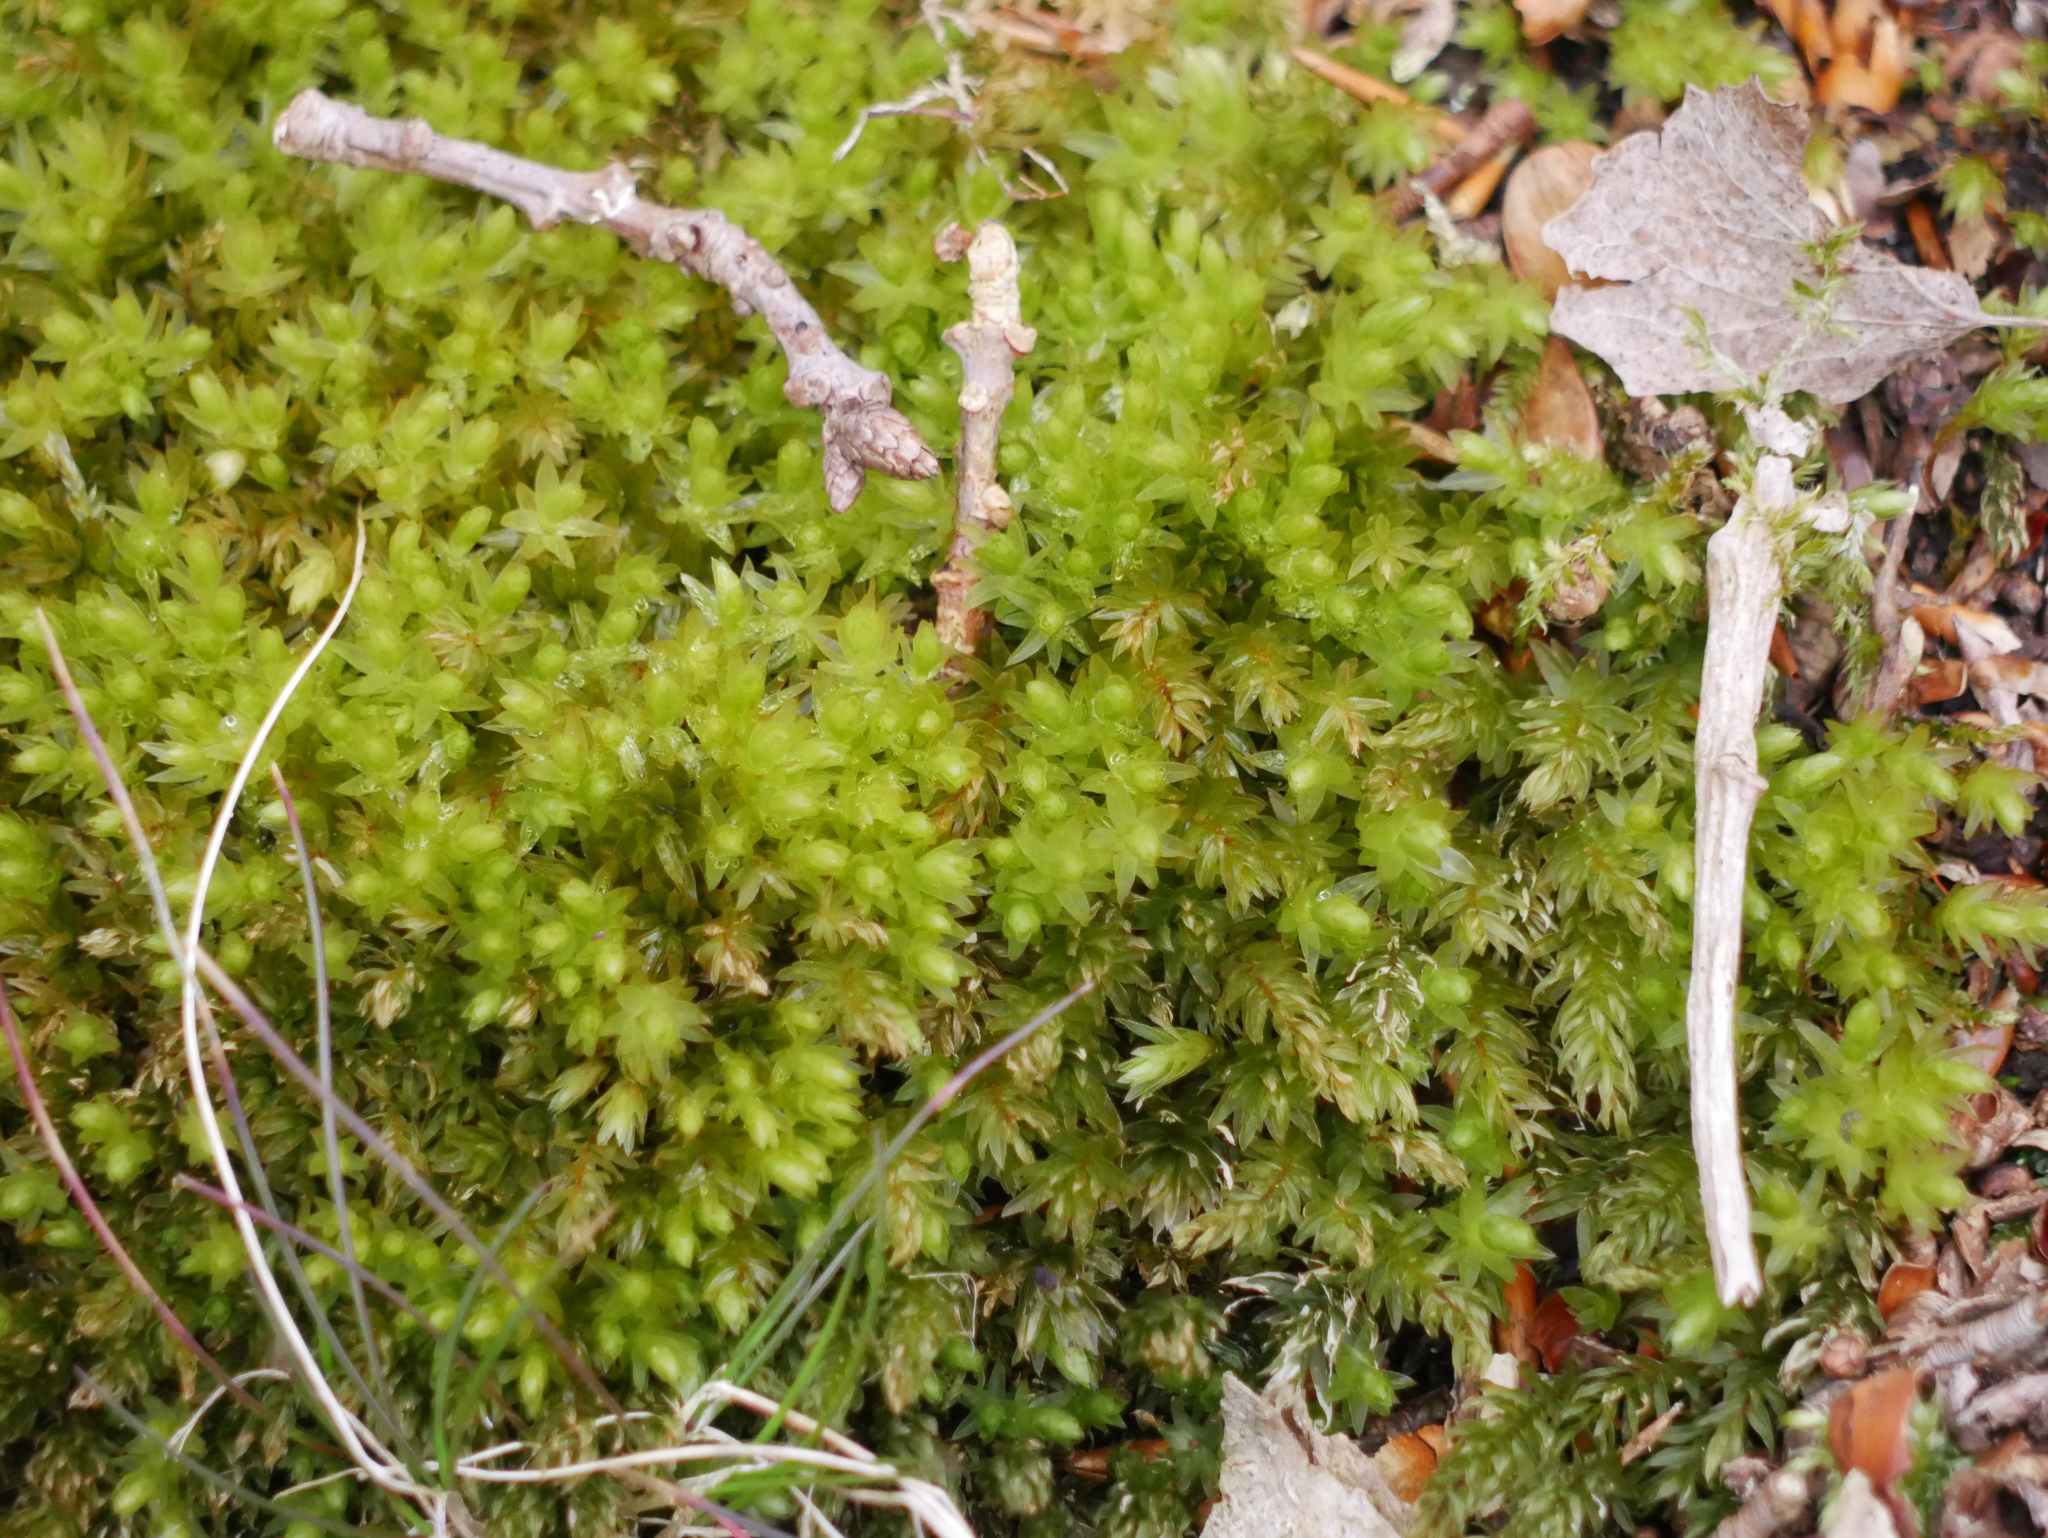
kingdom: Plantae
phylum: Bryophyta
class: Bryopsida
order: Bryales
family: Mniaceae
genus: Mnium
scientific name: Mnium hornum
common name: Swan's-neck leafy moss
